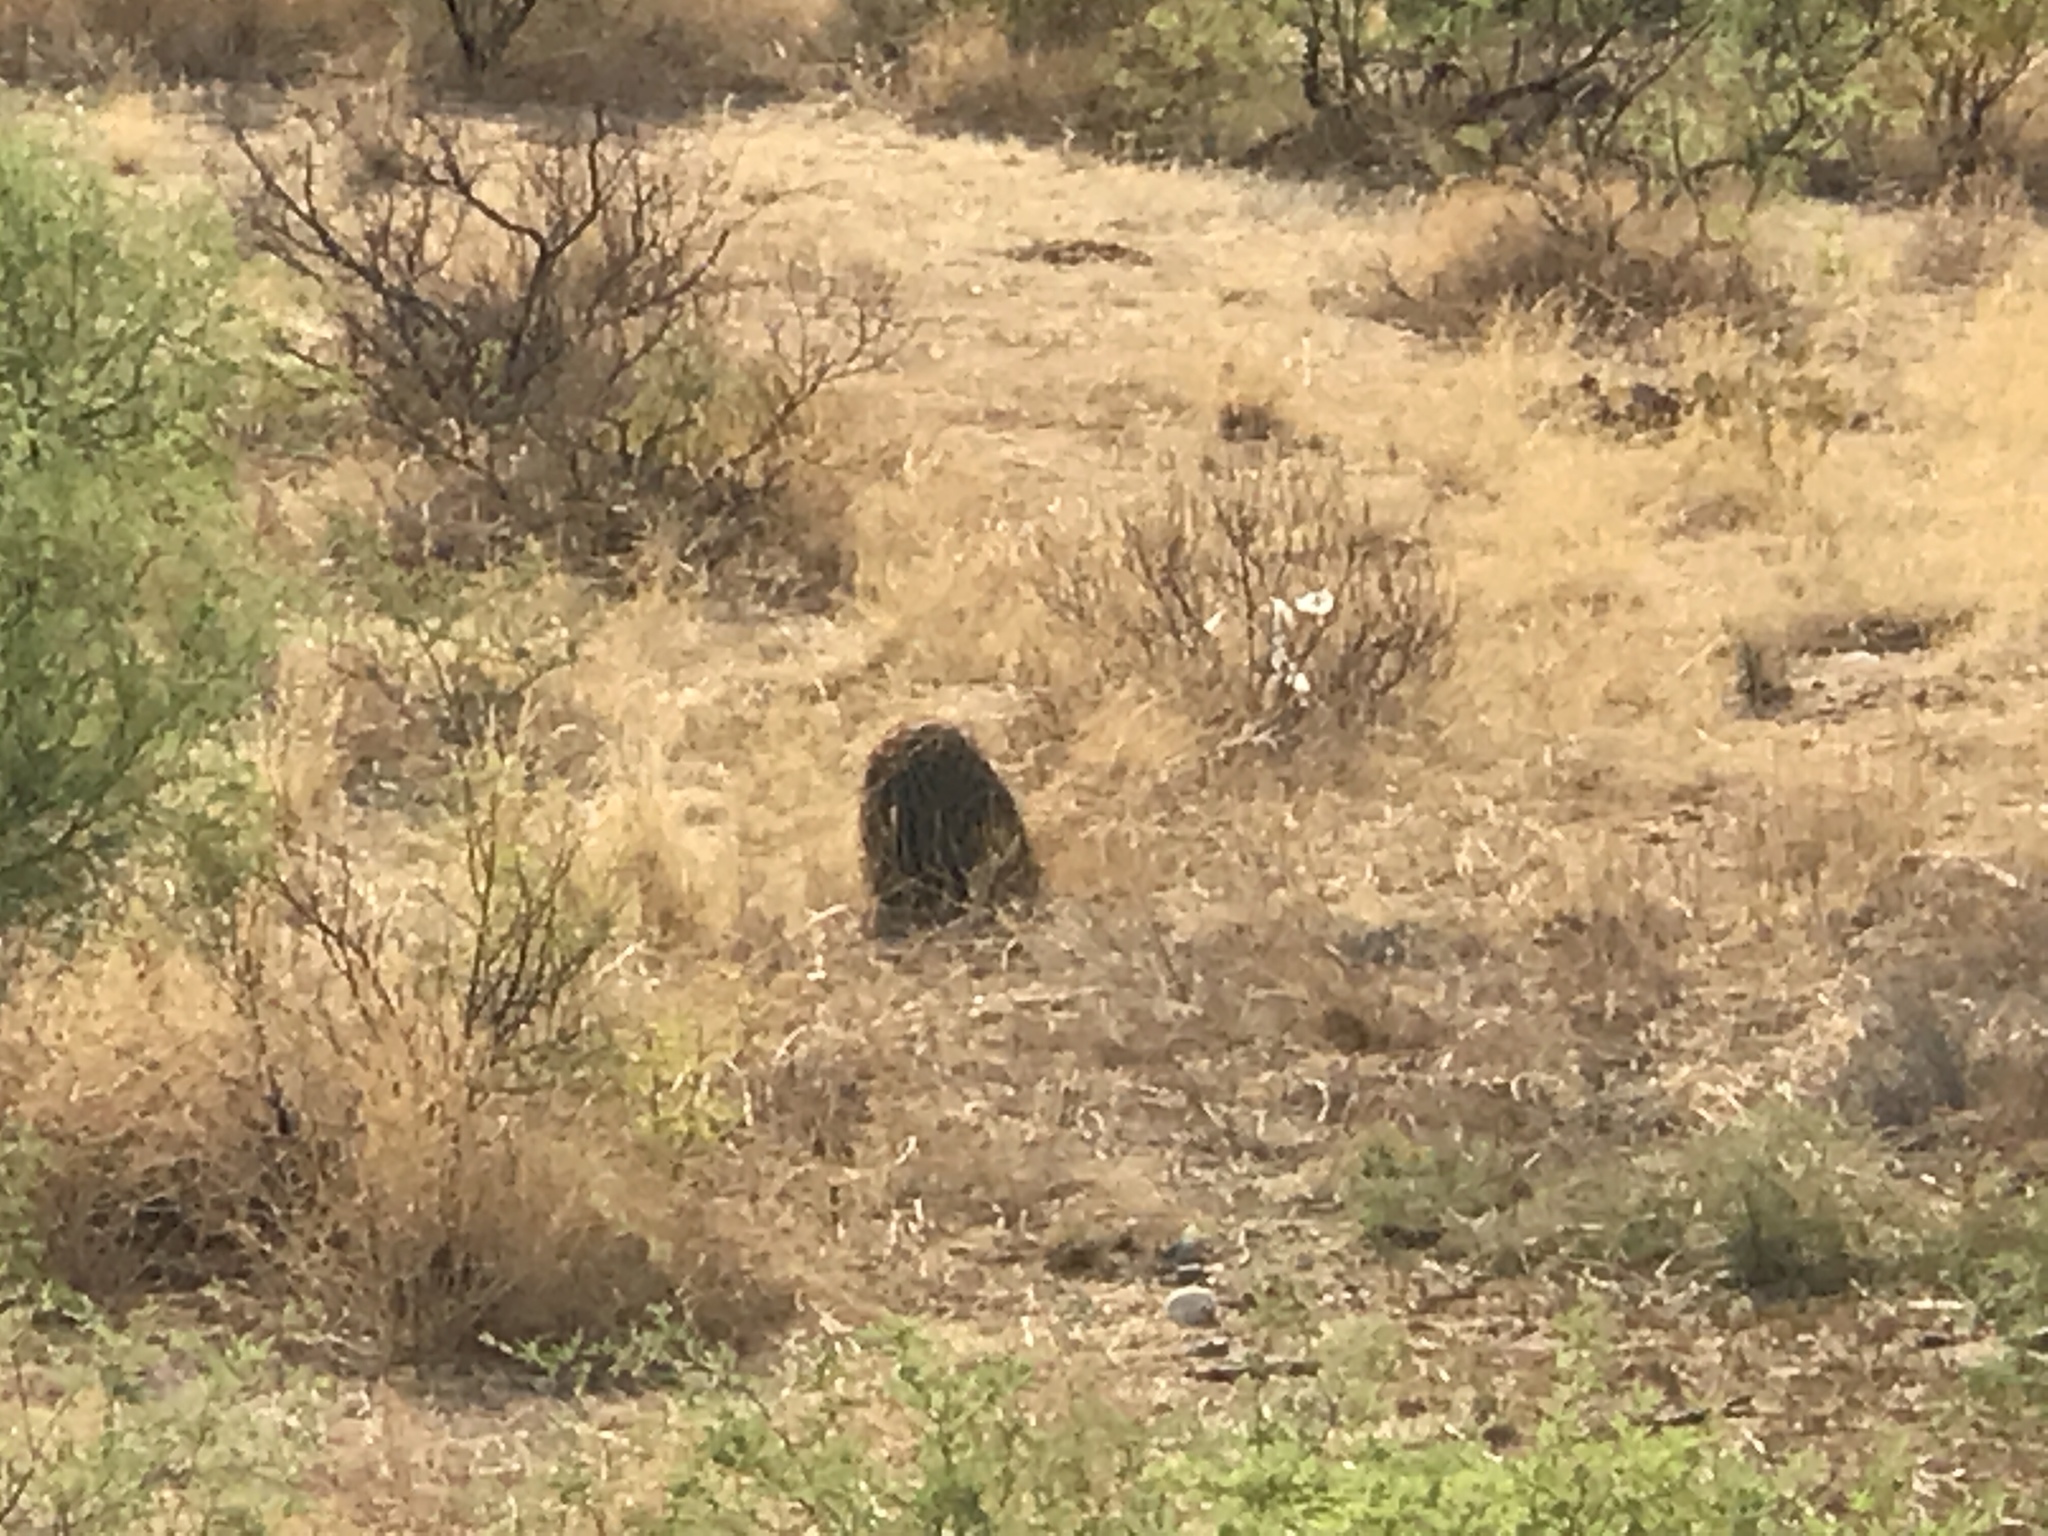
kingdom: Plantae
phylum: Tracheophyta
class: Magnoliopsida
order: Caryophyllales
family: Cactaceae
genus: Ferocactus
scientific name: Ferocactus wislizeni
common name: Candy barrel cactus
